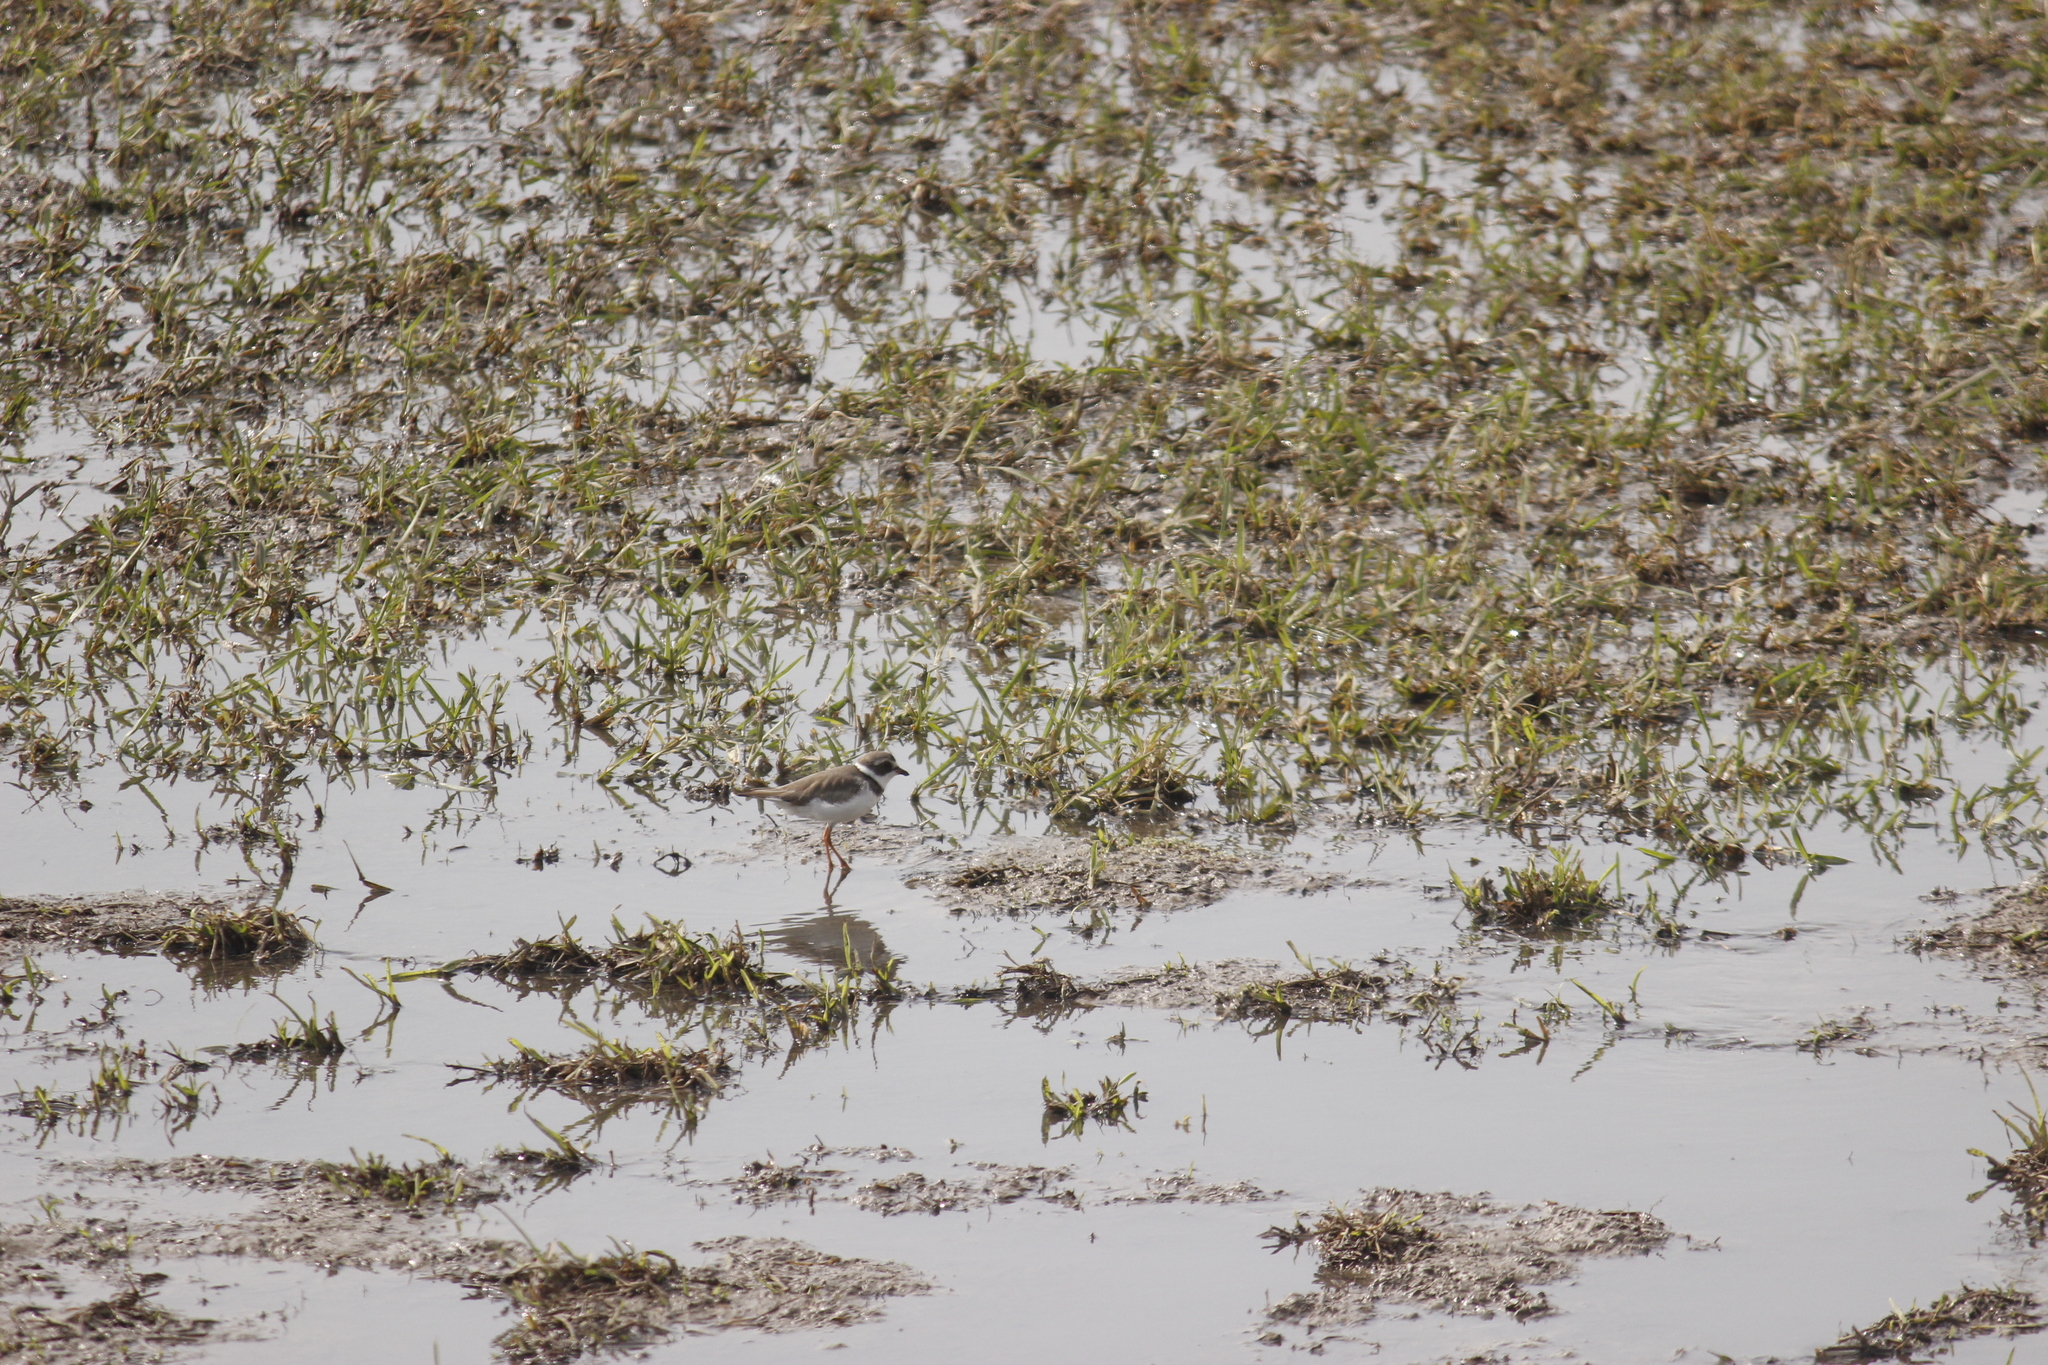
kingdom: Animalia
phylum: Chordata
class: Aves
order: Charadriiformes
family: Charadriidae
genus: Charadrius
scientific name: Charadrius semipalmatus
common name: Semipalmated plover
